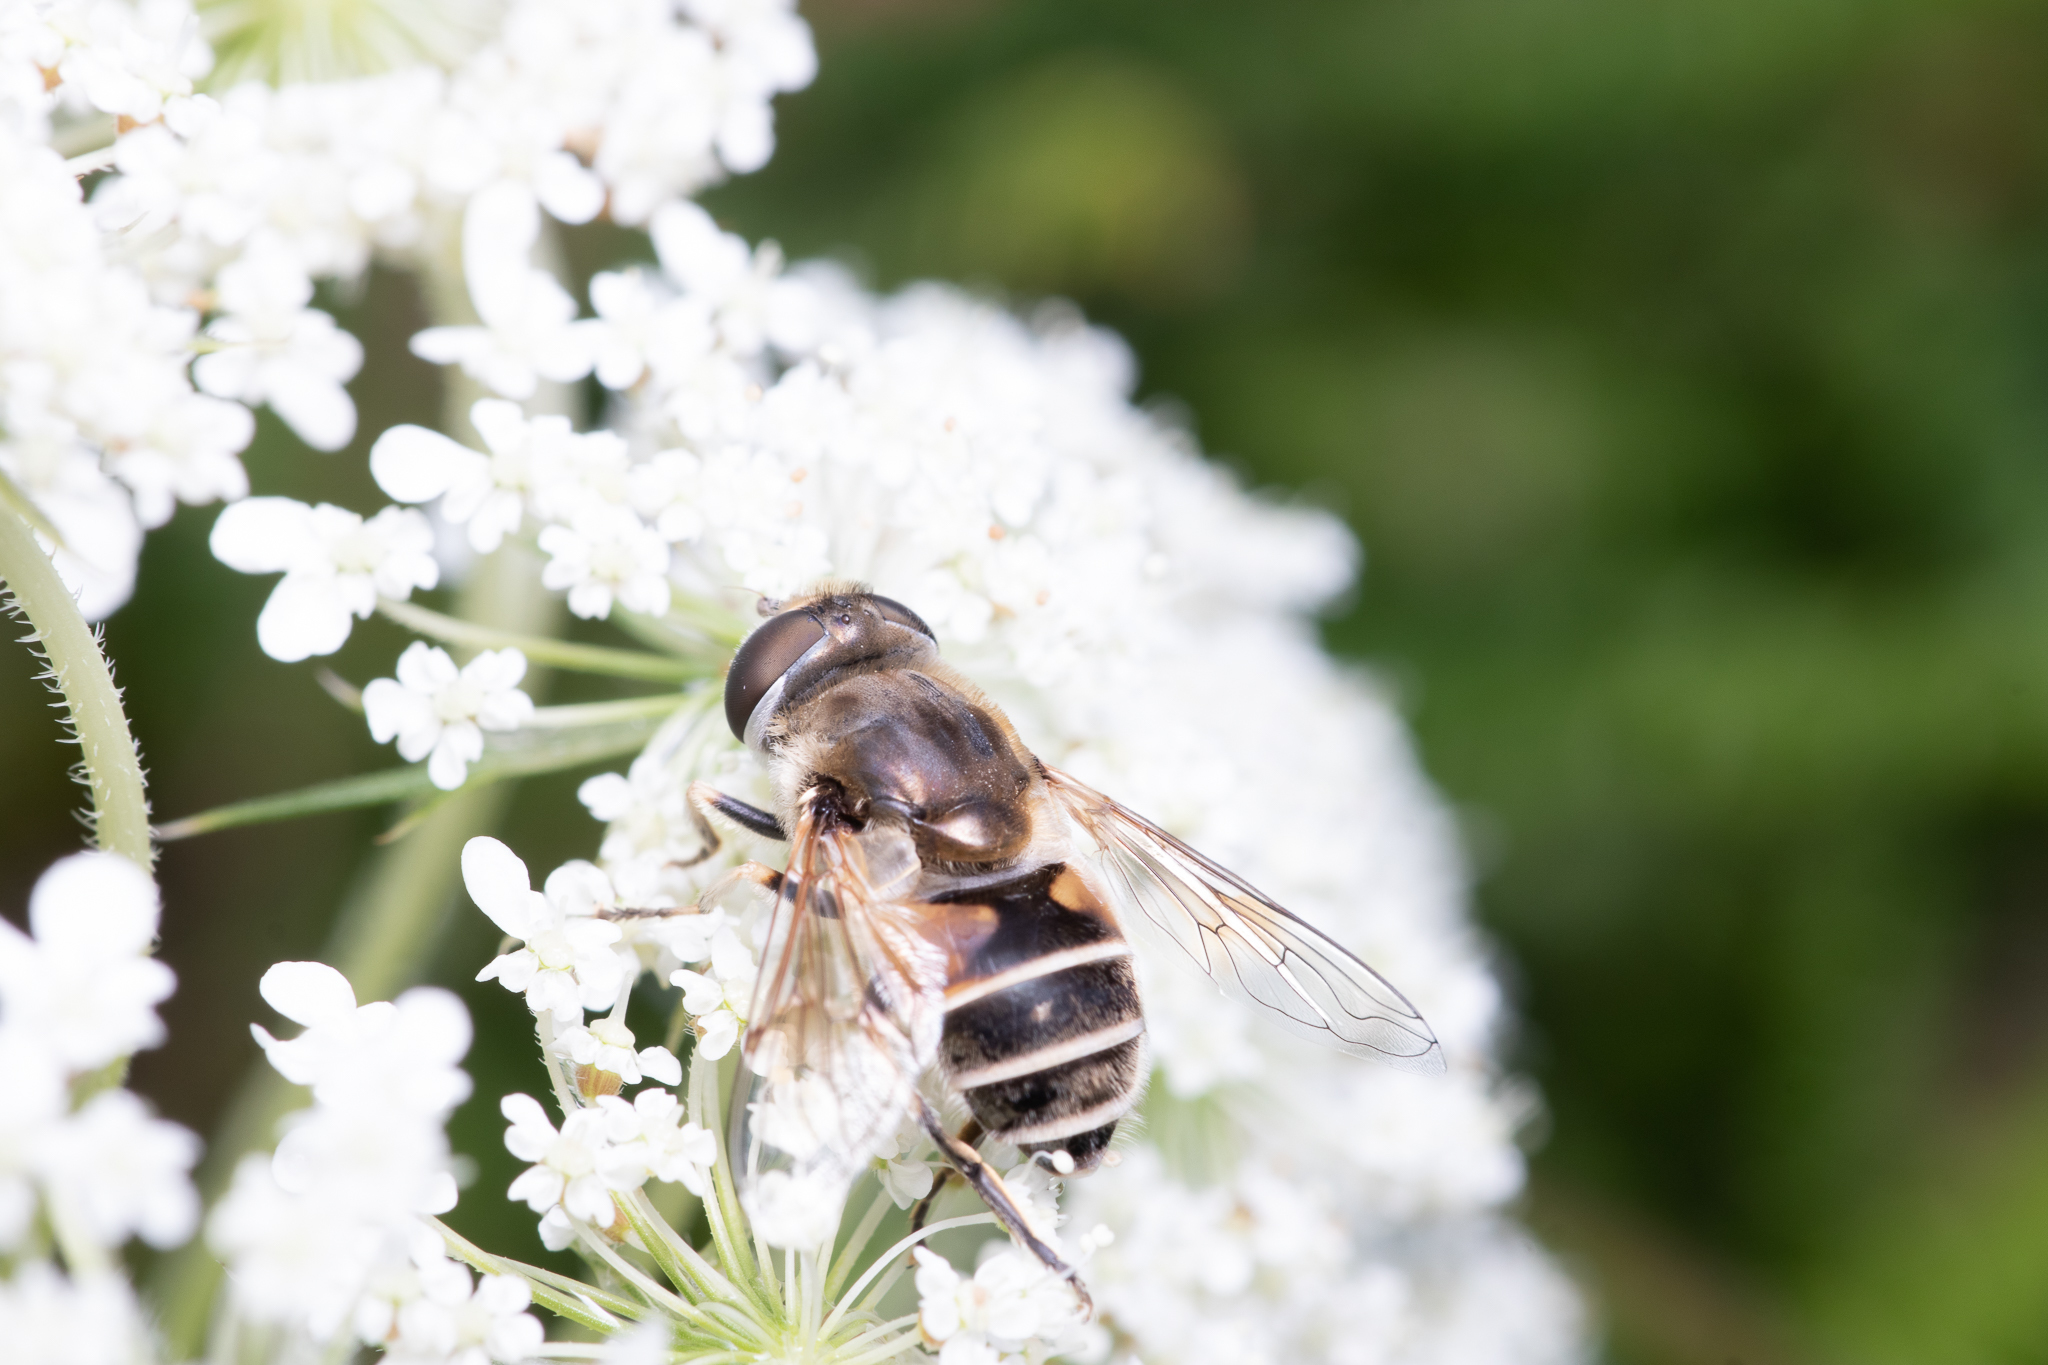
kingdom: Animalia
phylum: Arthropoda
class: Insecta
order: Diptera
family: Syrphidae
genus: Eristalis
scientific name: Eristalis arbustorum
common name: Hover fly
